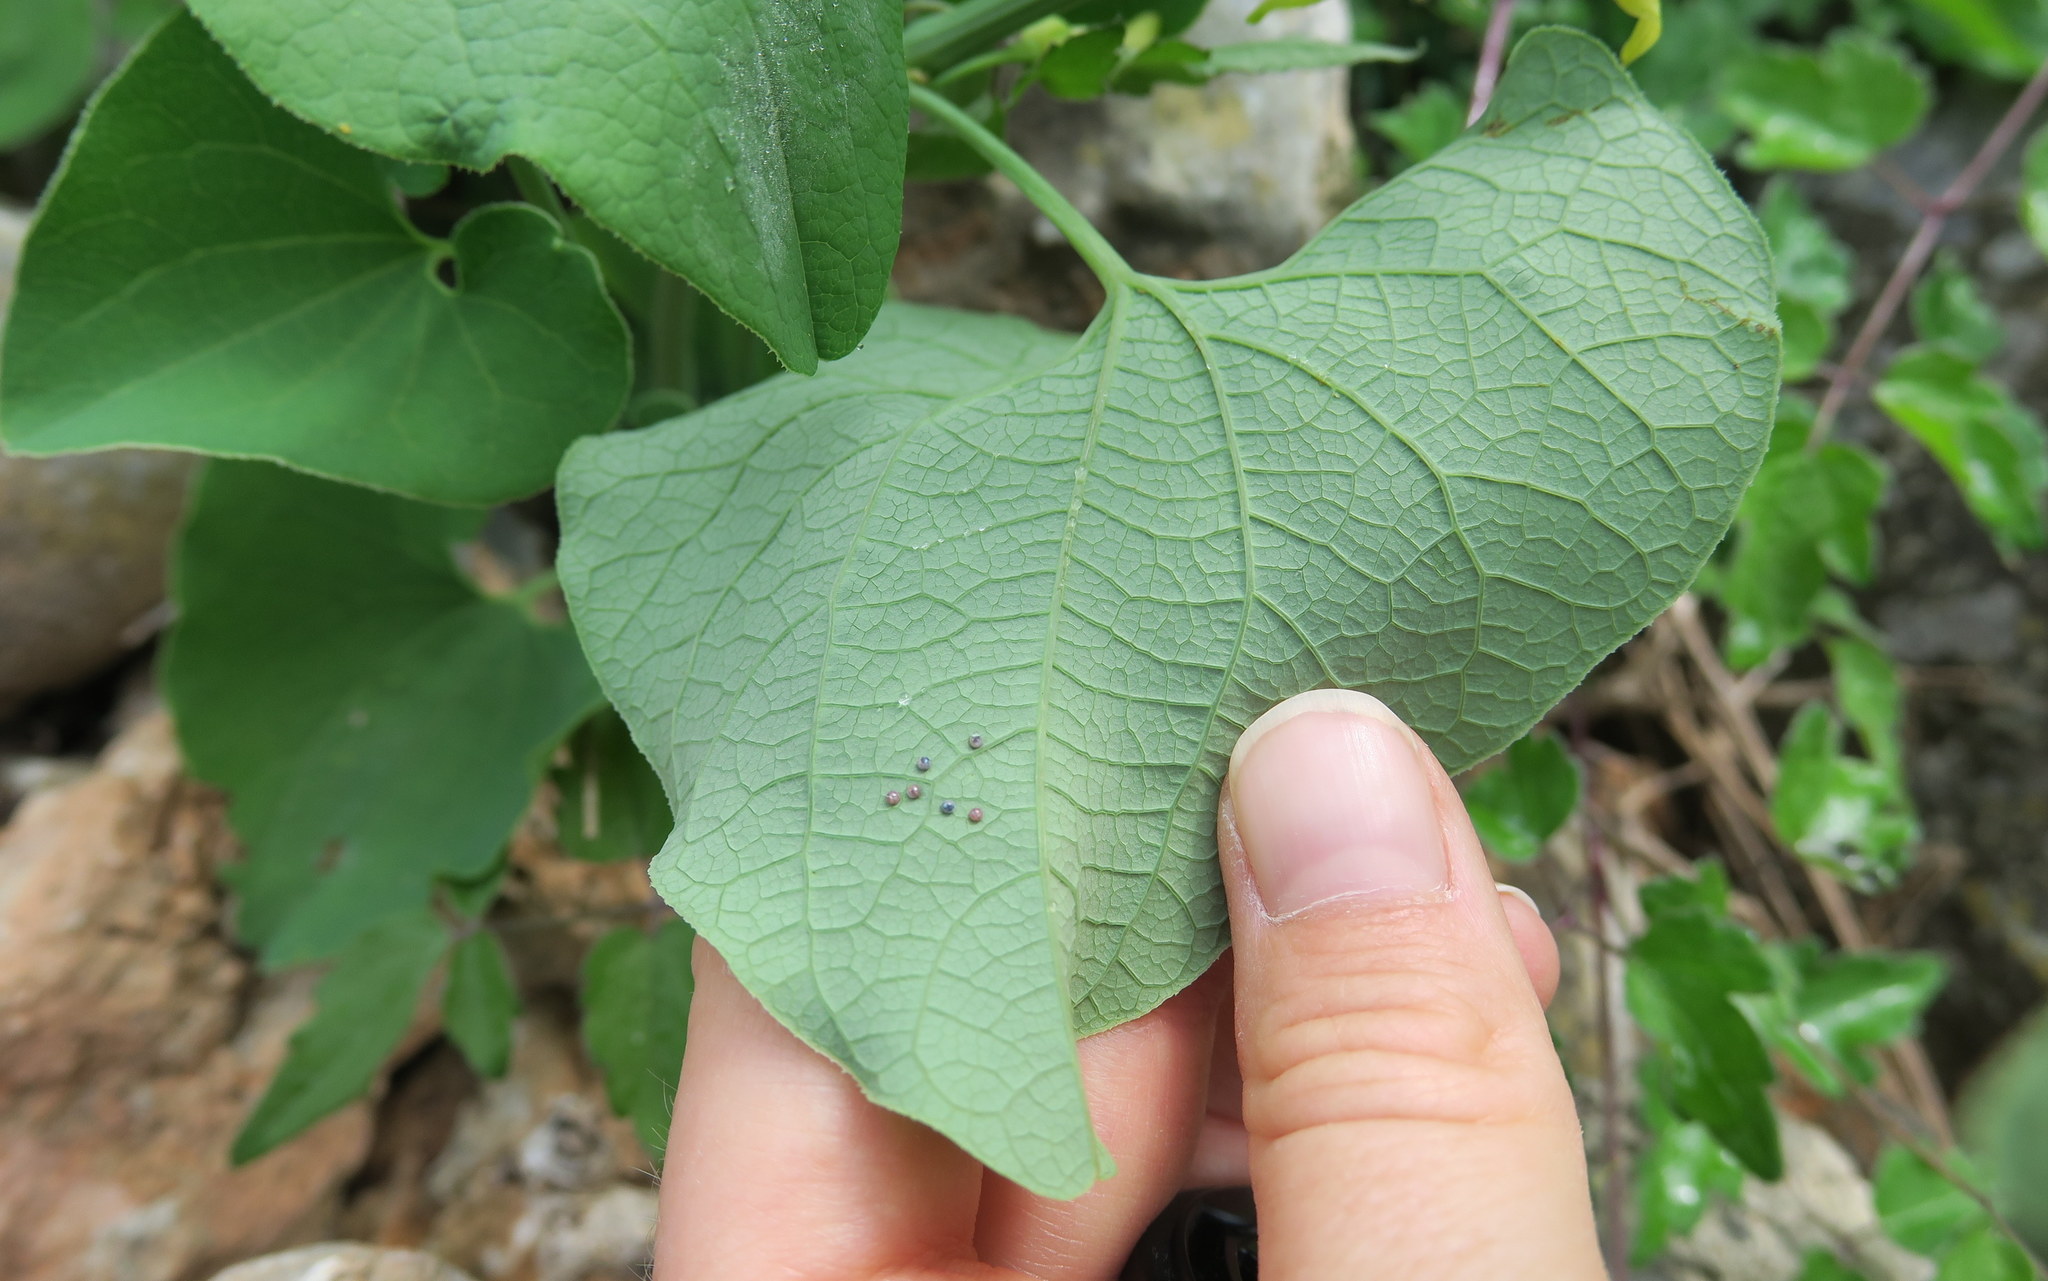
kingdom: Animalia
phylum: Arthropoda
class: Insecta
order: Lepidoptera
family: Papilionidae
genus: Zerynthia
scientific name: Zerynthia cerisy
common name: Eastern festoon
